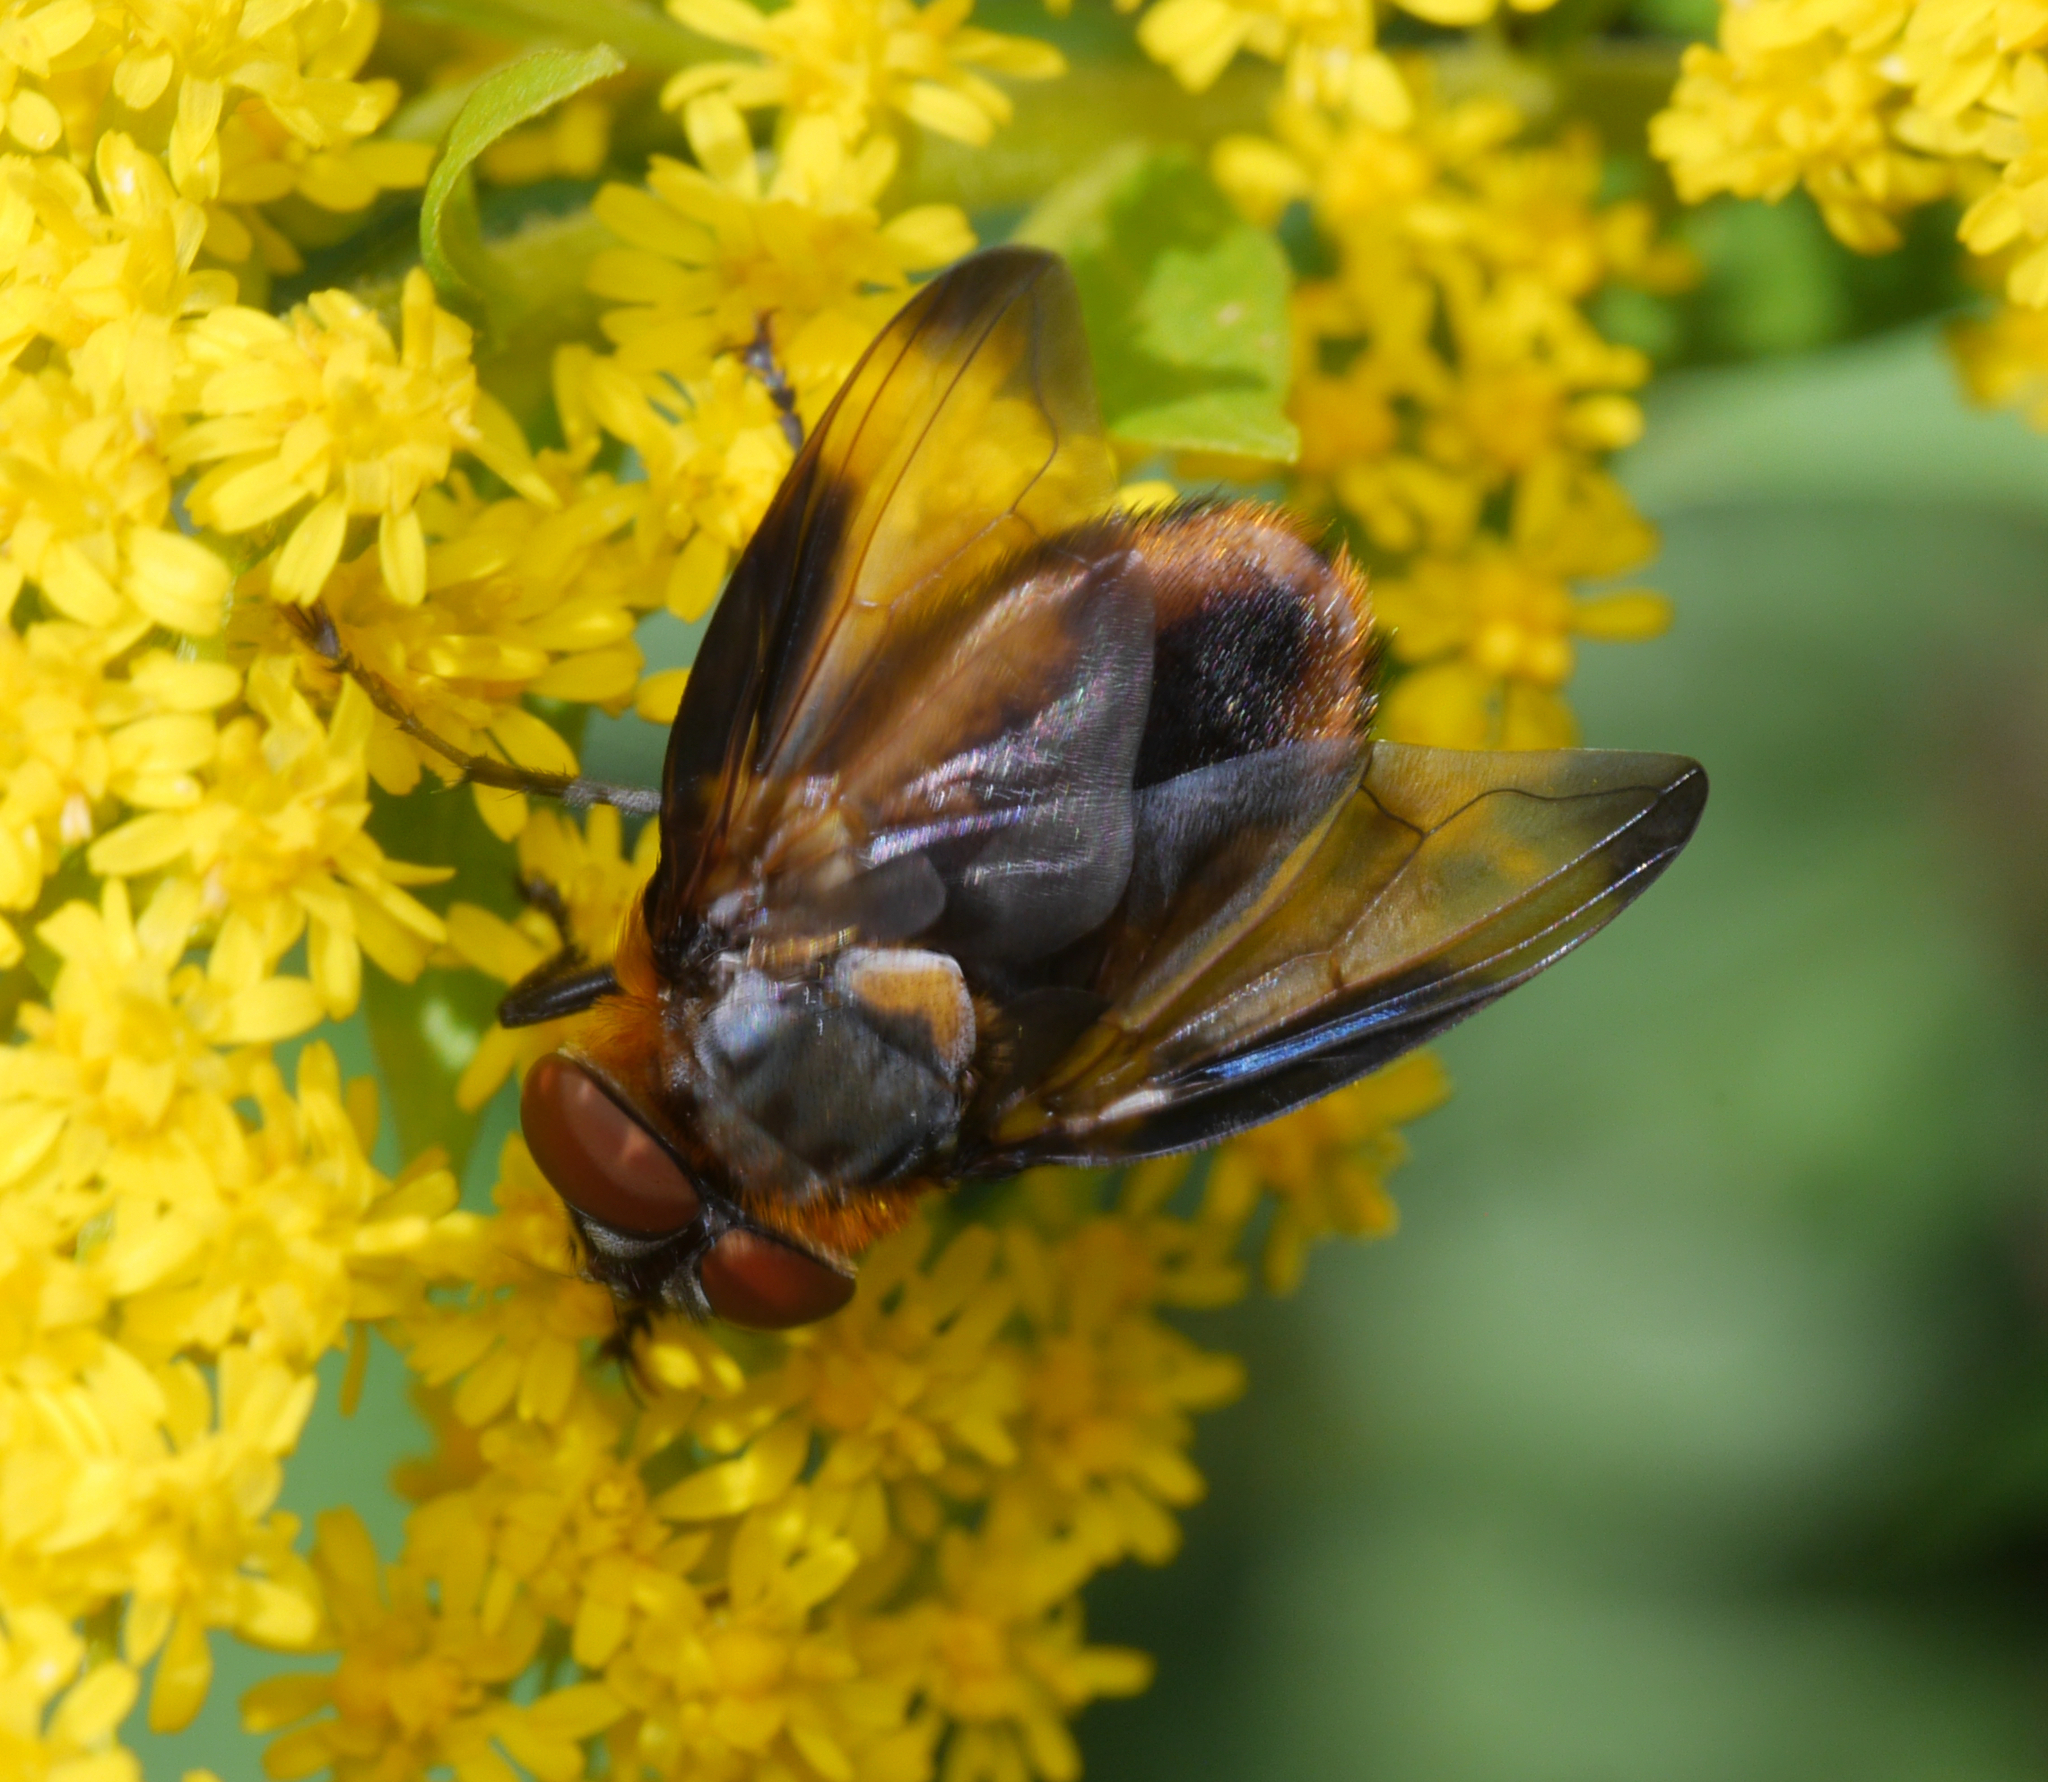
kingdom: Animalia
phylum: Arthropoda
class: Insecta
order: Diptera
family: Tachinidae
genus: Phasia
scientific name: Phasia hemiptera
